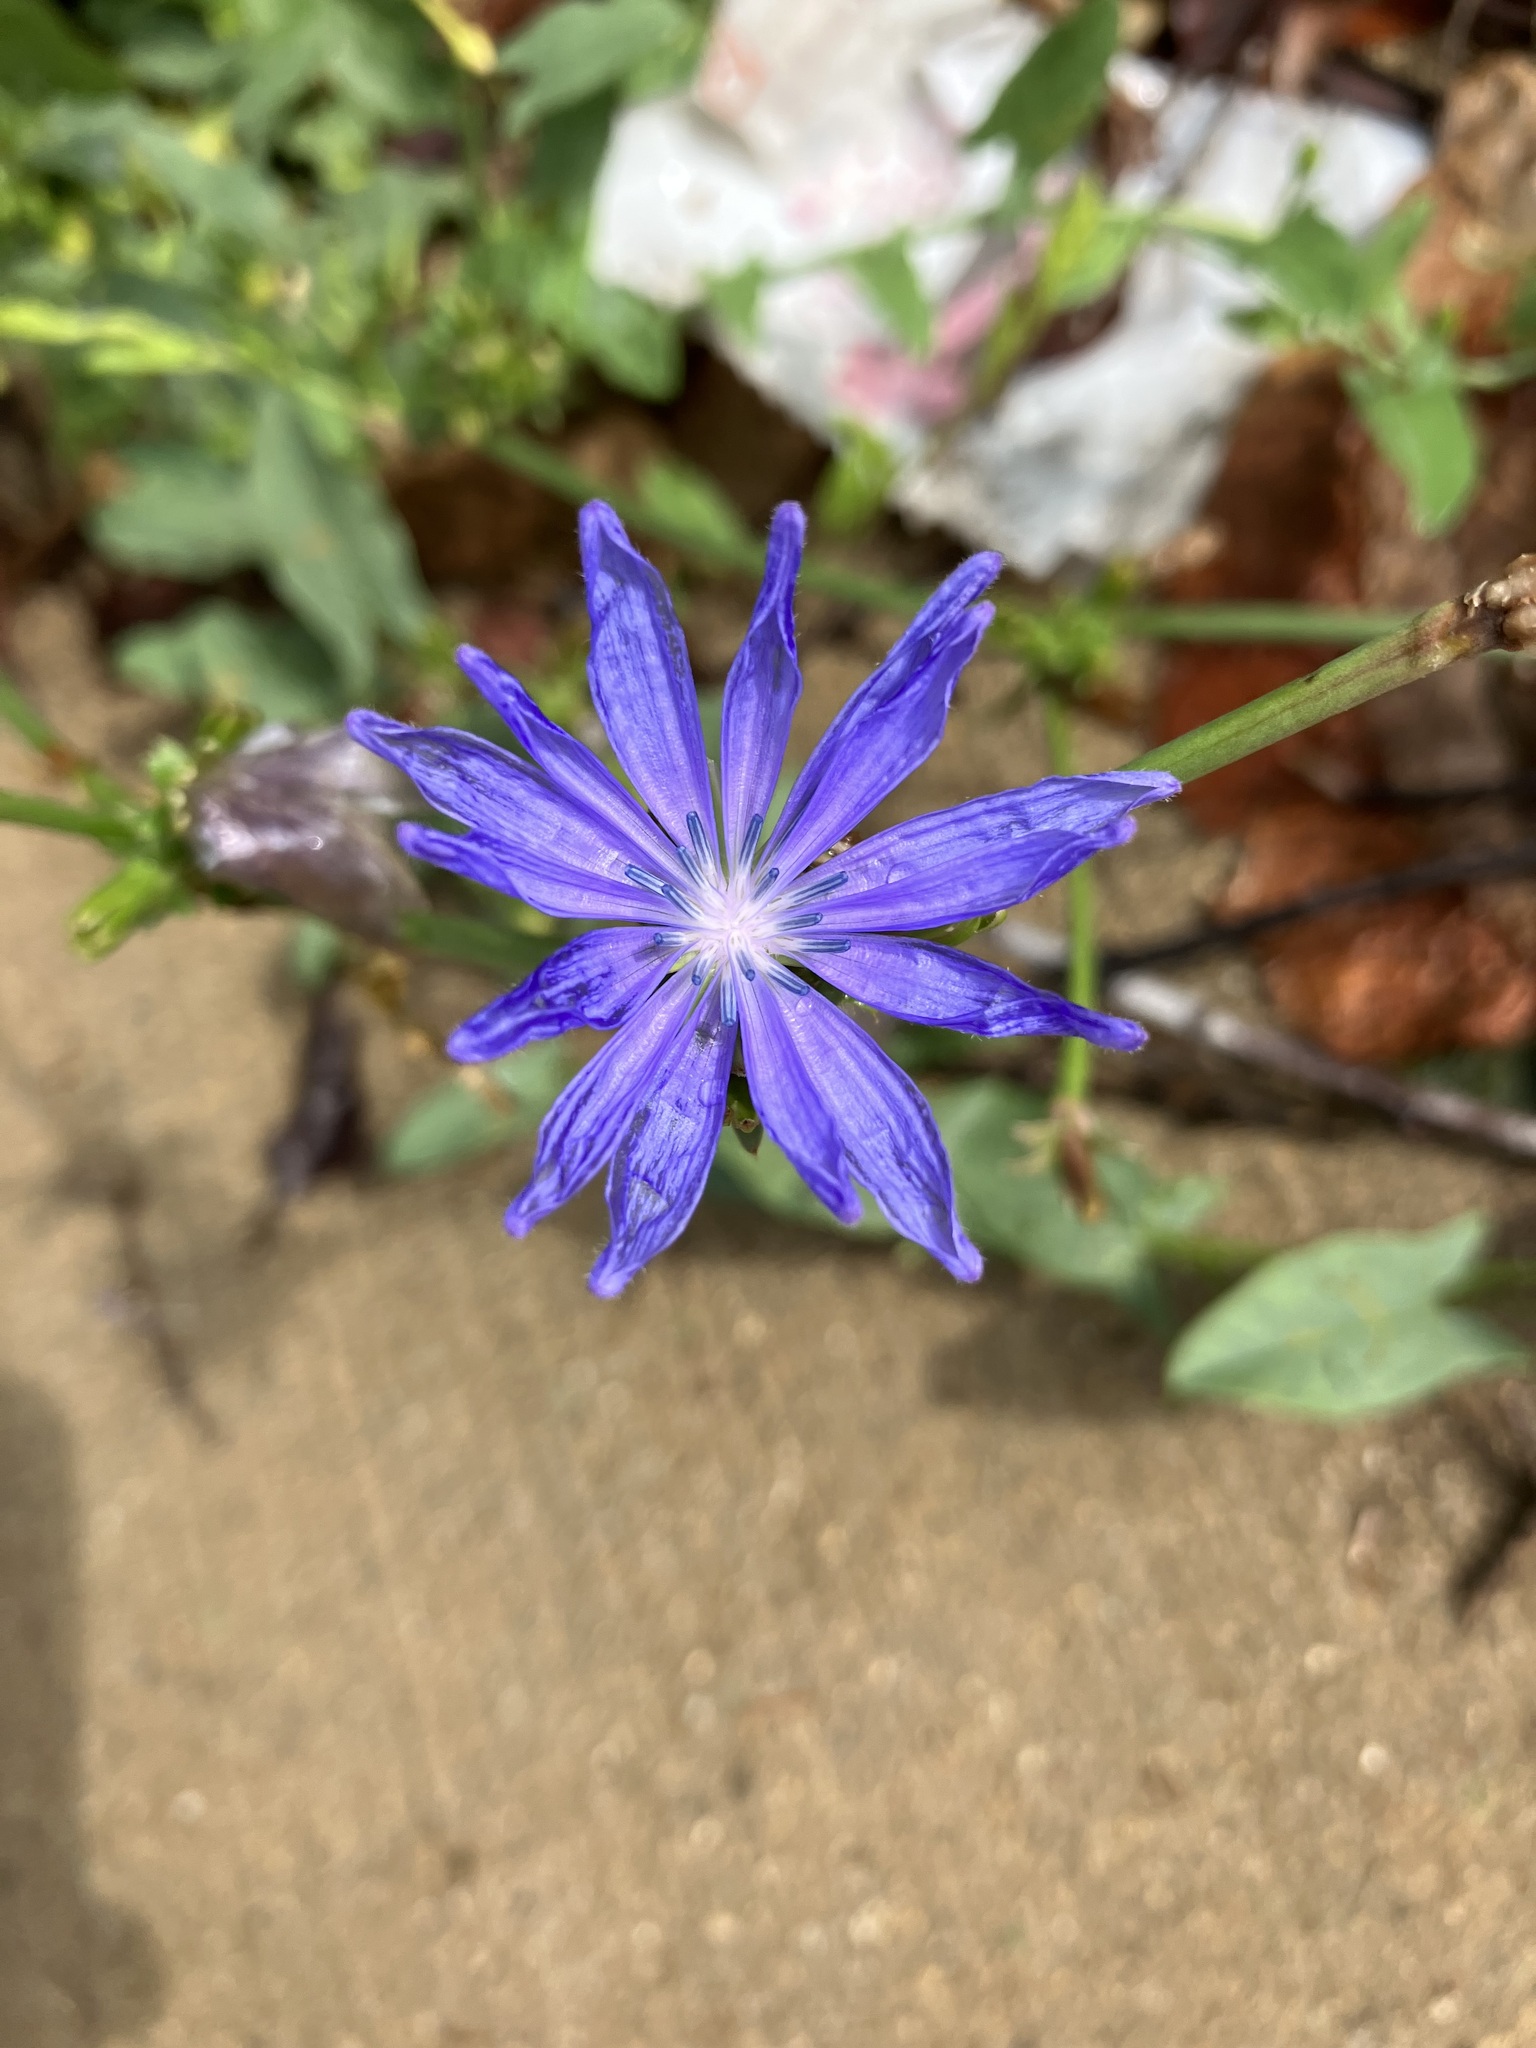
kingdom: Plantae
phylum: Tracheophyta
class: Magnoliopsida
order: Asterales
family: Asteraceae
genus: Cichorium
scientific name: Cichorium intybus
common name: Chicory
